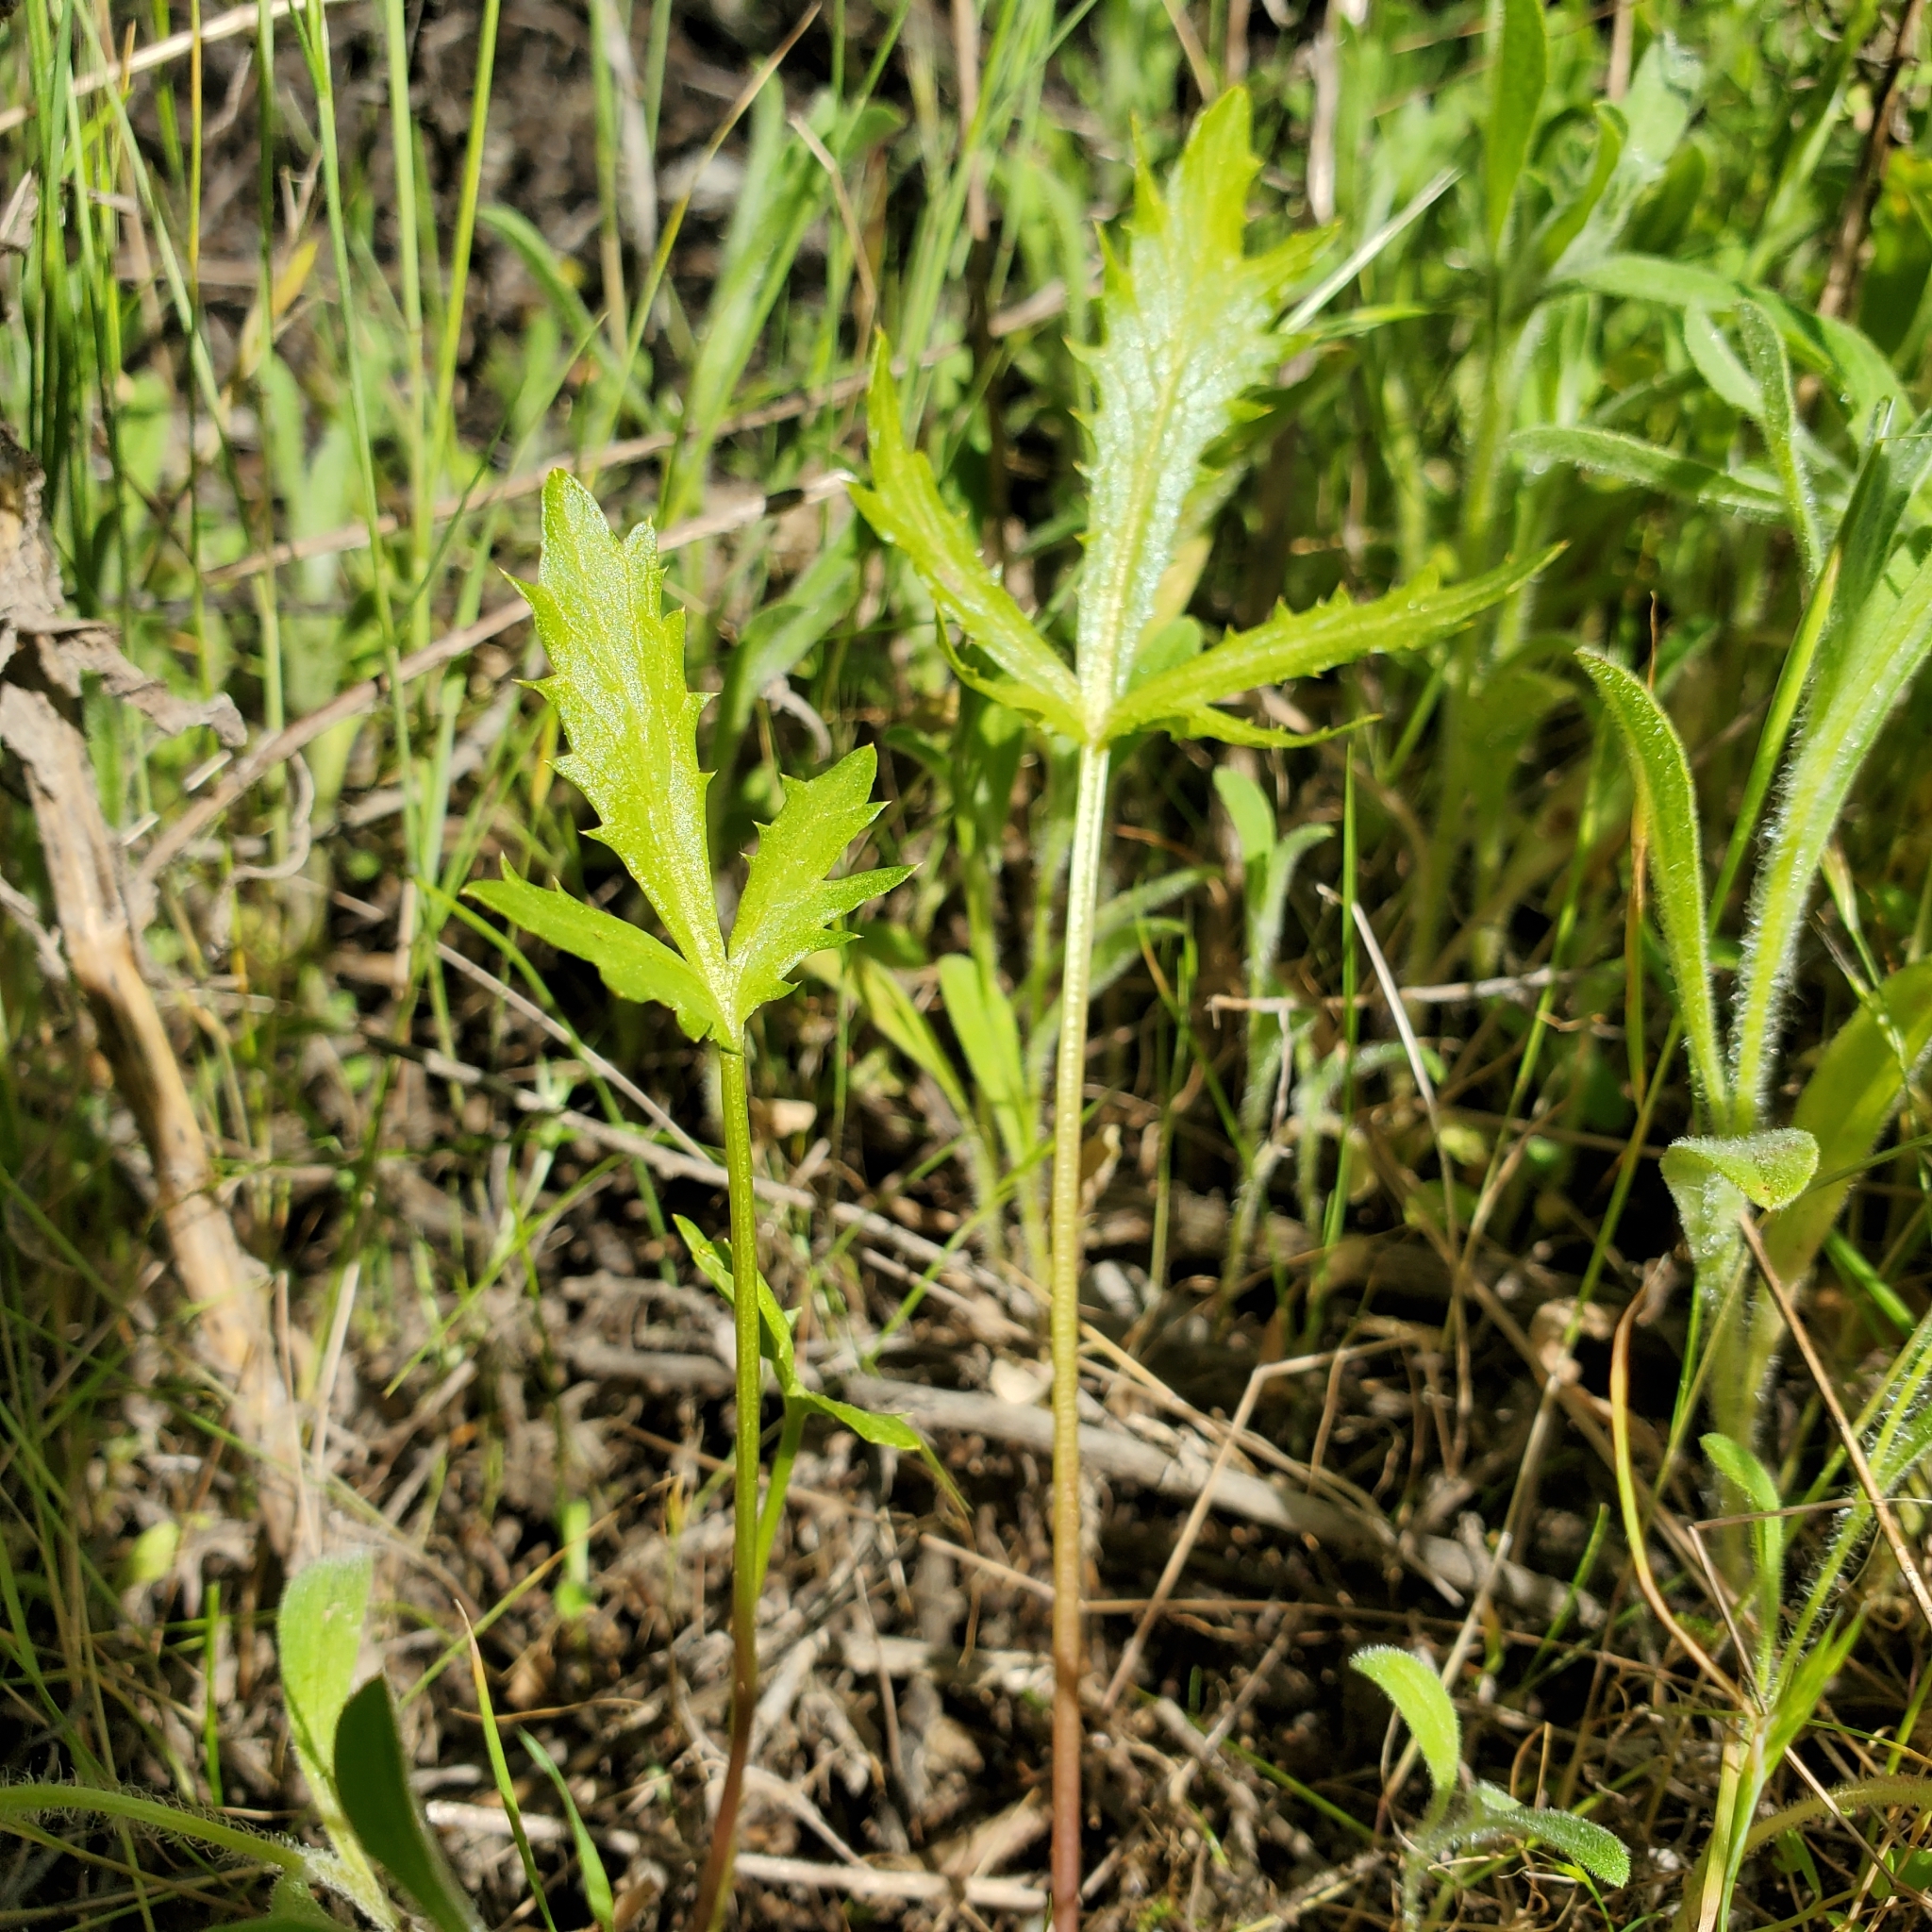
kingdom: Plantae
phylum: Tracheophyta
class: Magnoliopsida
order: Apiales
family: Apiaceae
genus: Sanicula
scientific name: Sanicula arguta
